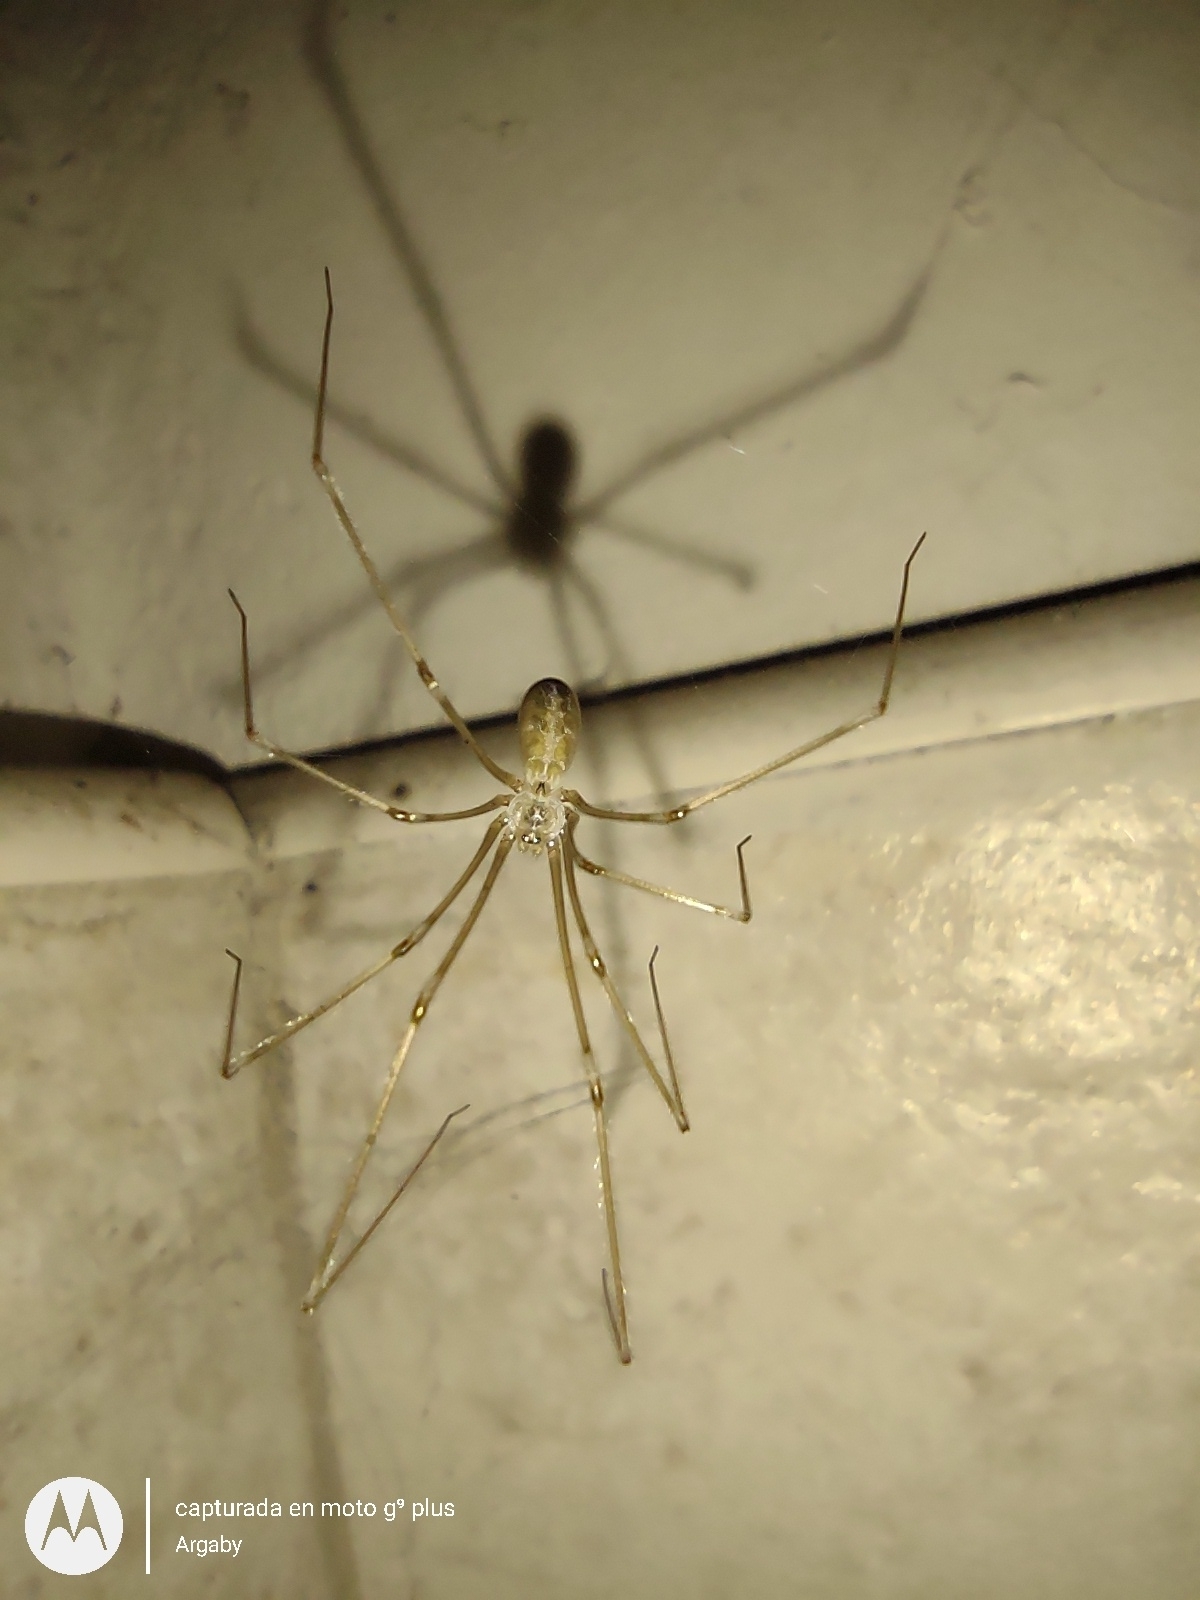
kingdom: Animalia
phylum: Arthropoda
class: Arachnida
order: Araneae
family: Pholcidae
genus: Pholcus
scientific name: Pholcus phalangioides
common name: Longbodied cellar spider
